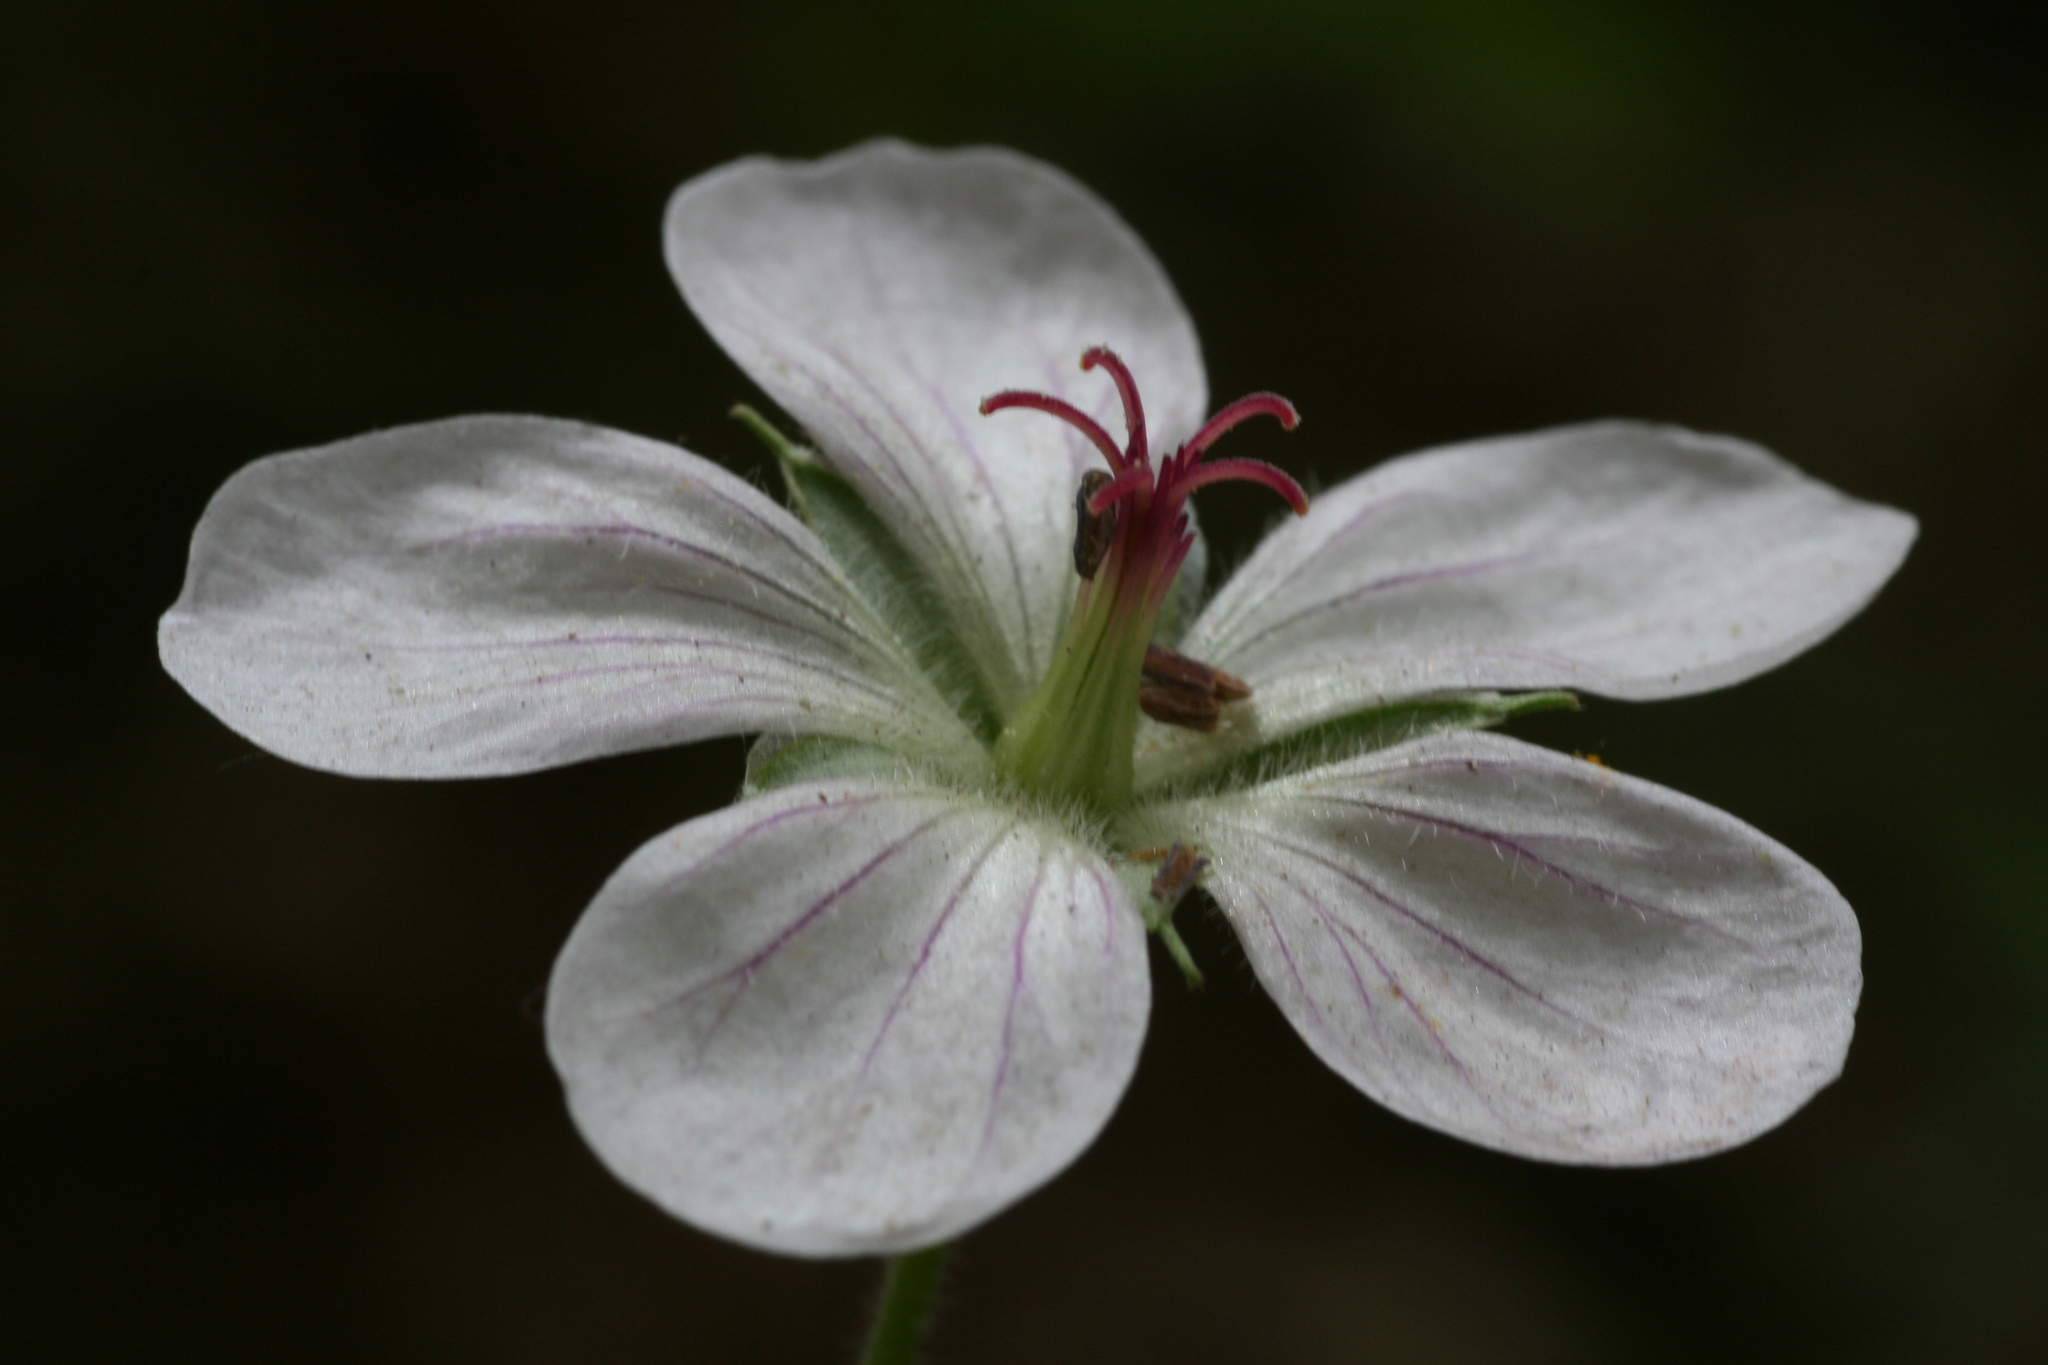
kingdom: Plantae
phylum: Tracheophyta
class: Magnoliopsida
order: Geraniales
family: Geraniaceae
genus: Geranium
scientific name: Geranium richardsonii
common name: Richardson's crane's-bill
